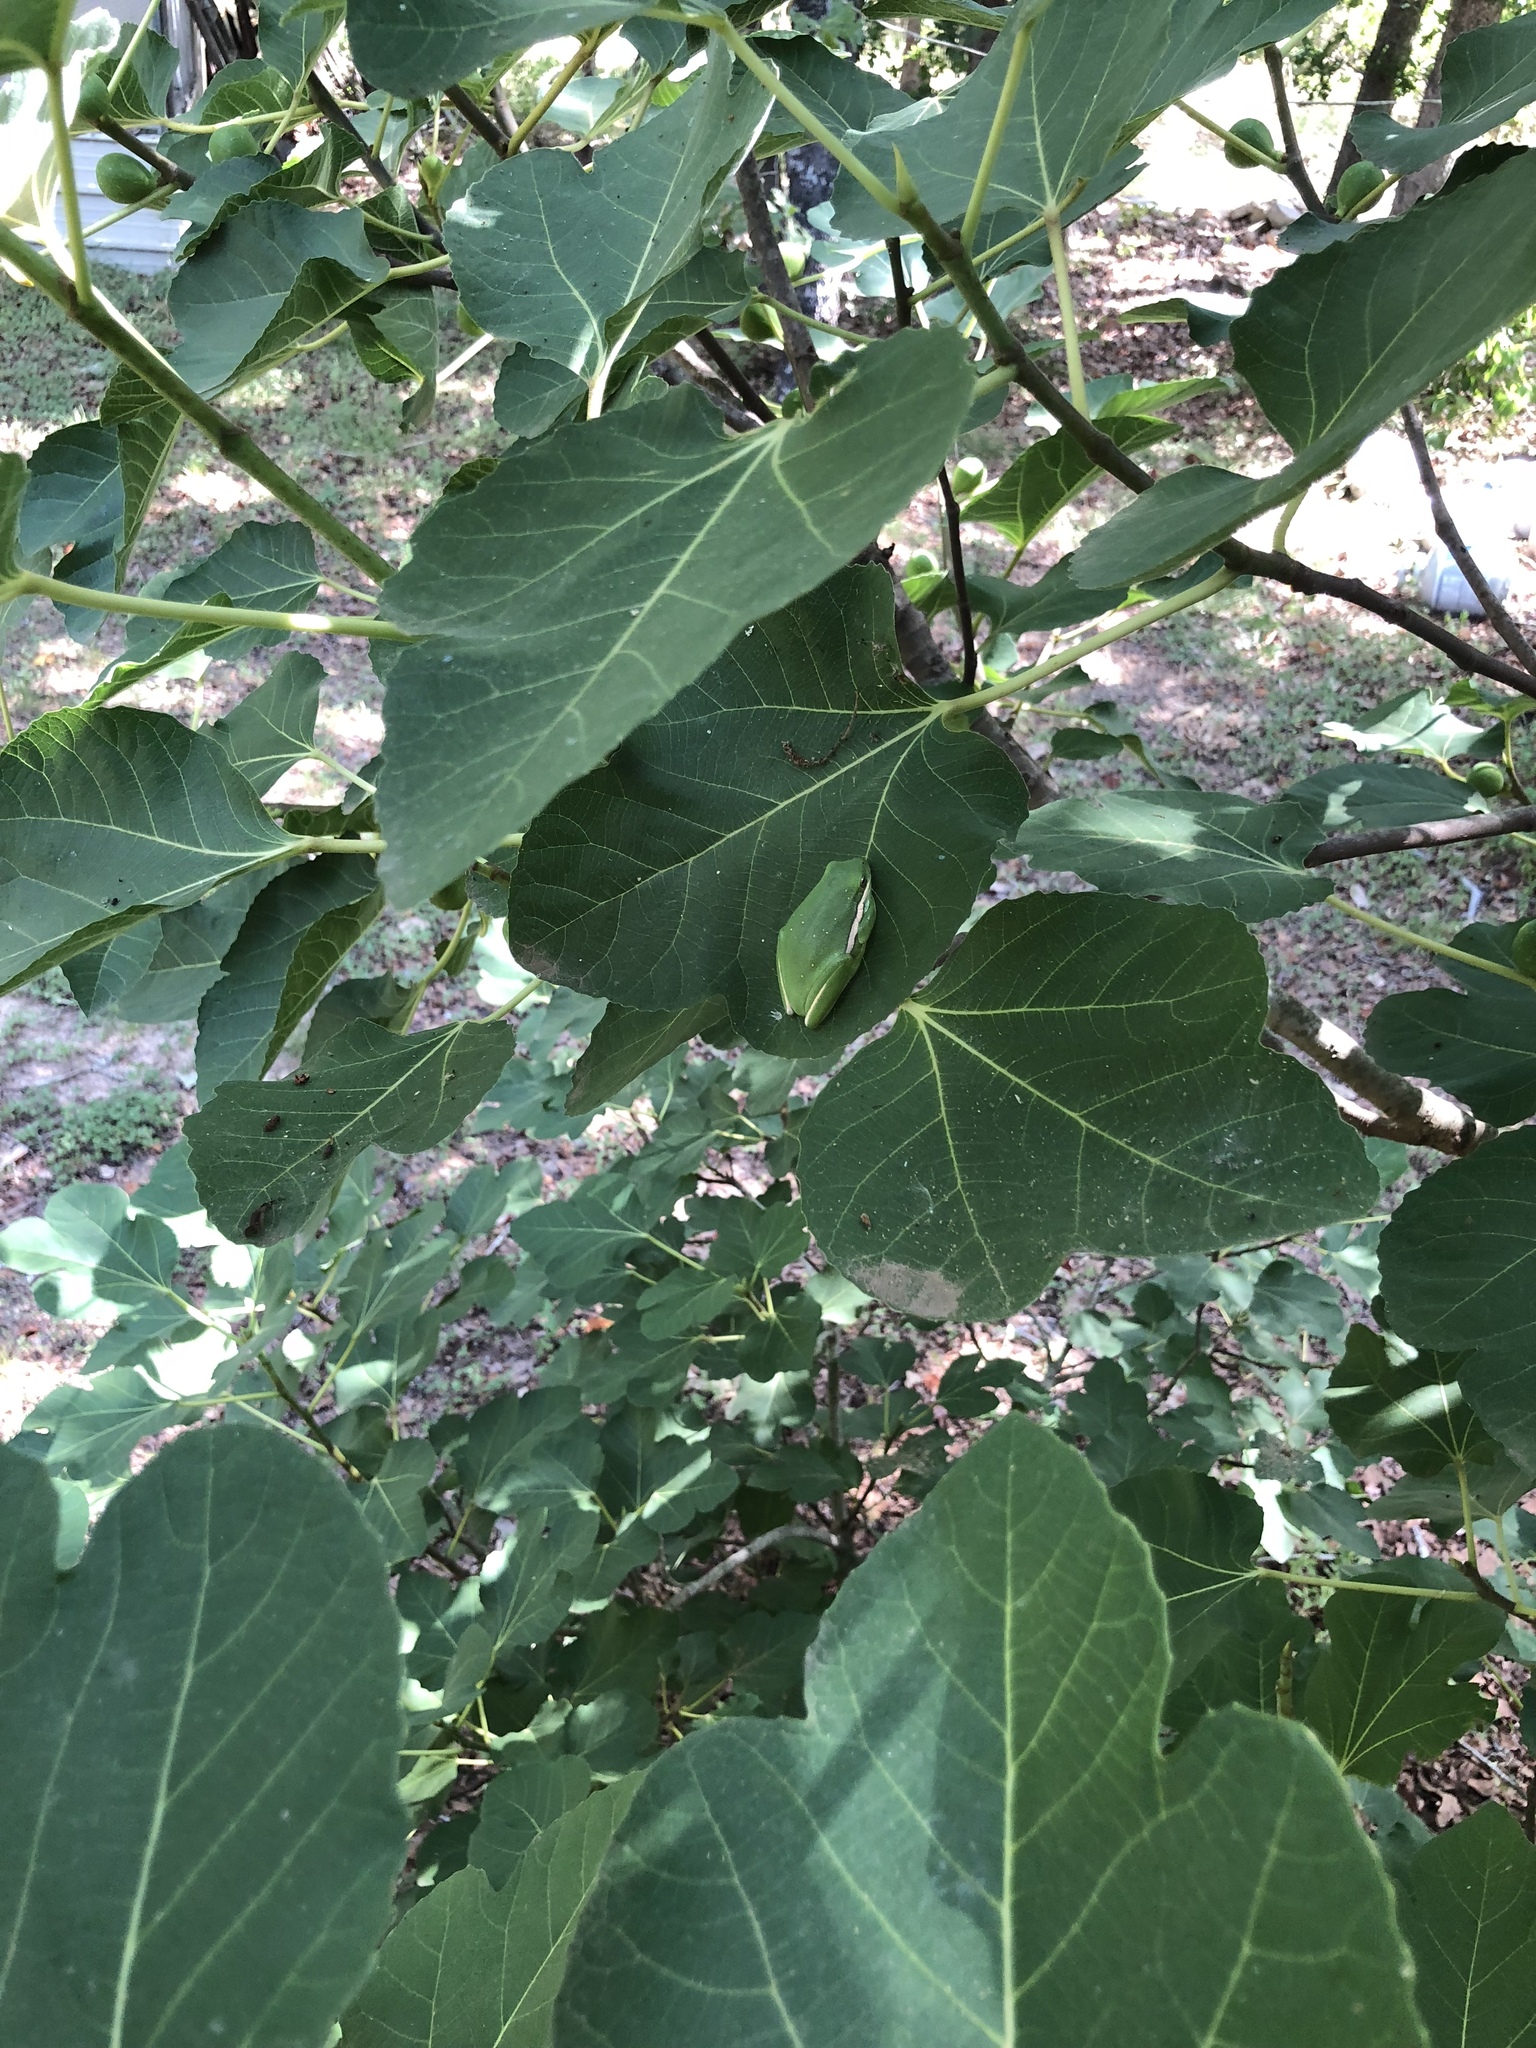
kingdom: Animalia
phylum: Chordata
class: Amphibia
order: Anura
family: Hylidae
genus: Dryophytes
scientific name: Dryophytes cinereus
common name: Green treefrog
